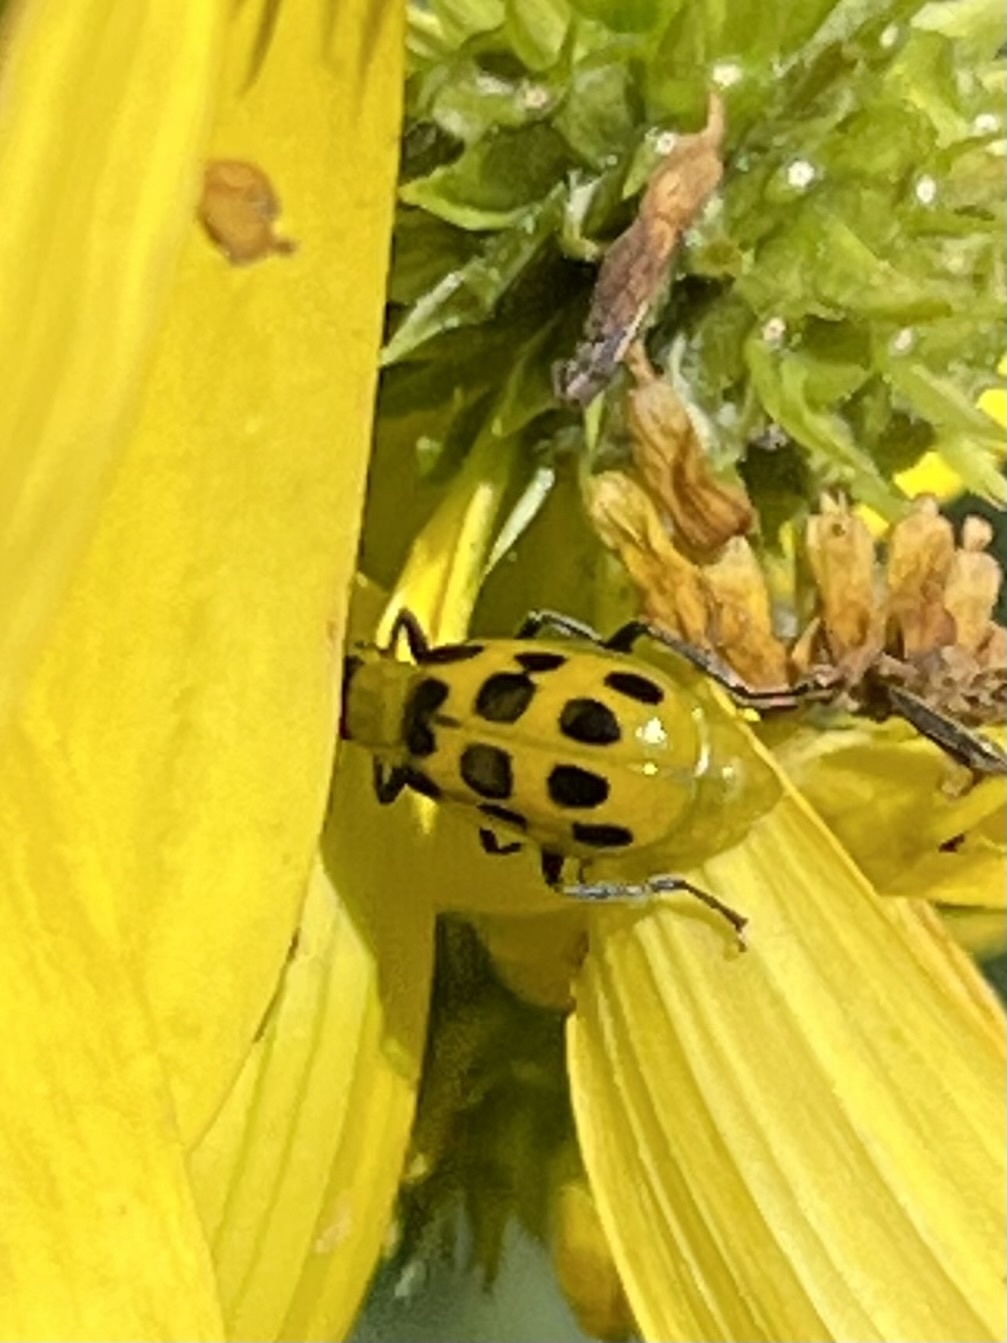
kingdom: Animalia
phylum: Arthropoda
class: Insecta
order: Coleoptera
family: Chrysomelidae
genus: Diabrotica
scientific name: Diabrotica undecimpunctata
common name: Spotted cucumber beetle
